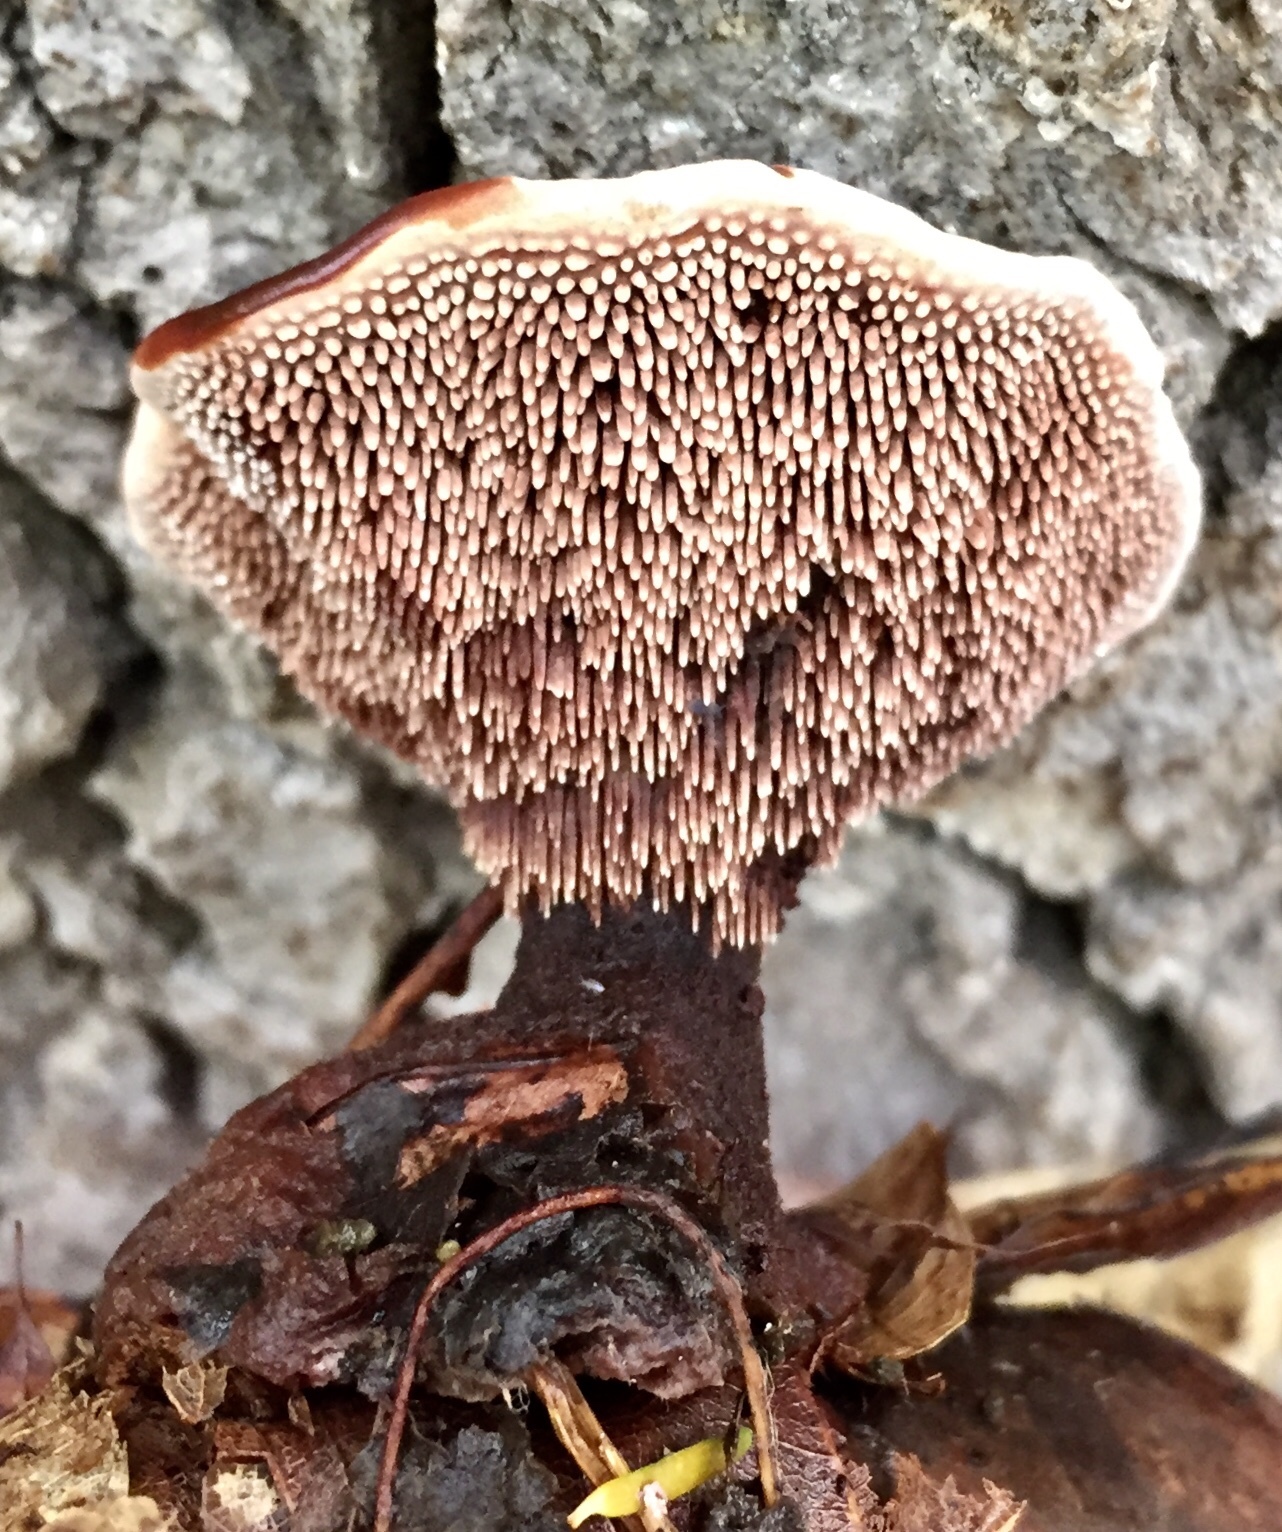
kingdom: Fungi
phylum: Basidiomycota
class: Agaricomycetes
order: Thelephorales
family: Bankeraceae
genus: Hydnellum
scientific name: Hydnellum spongiosipes
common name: Velvet tooth
